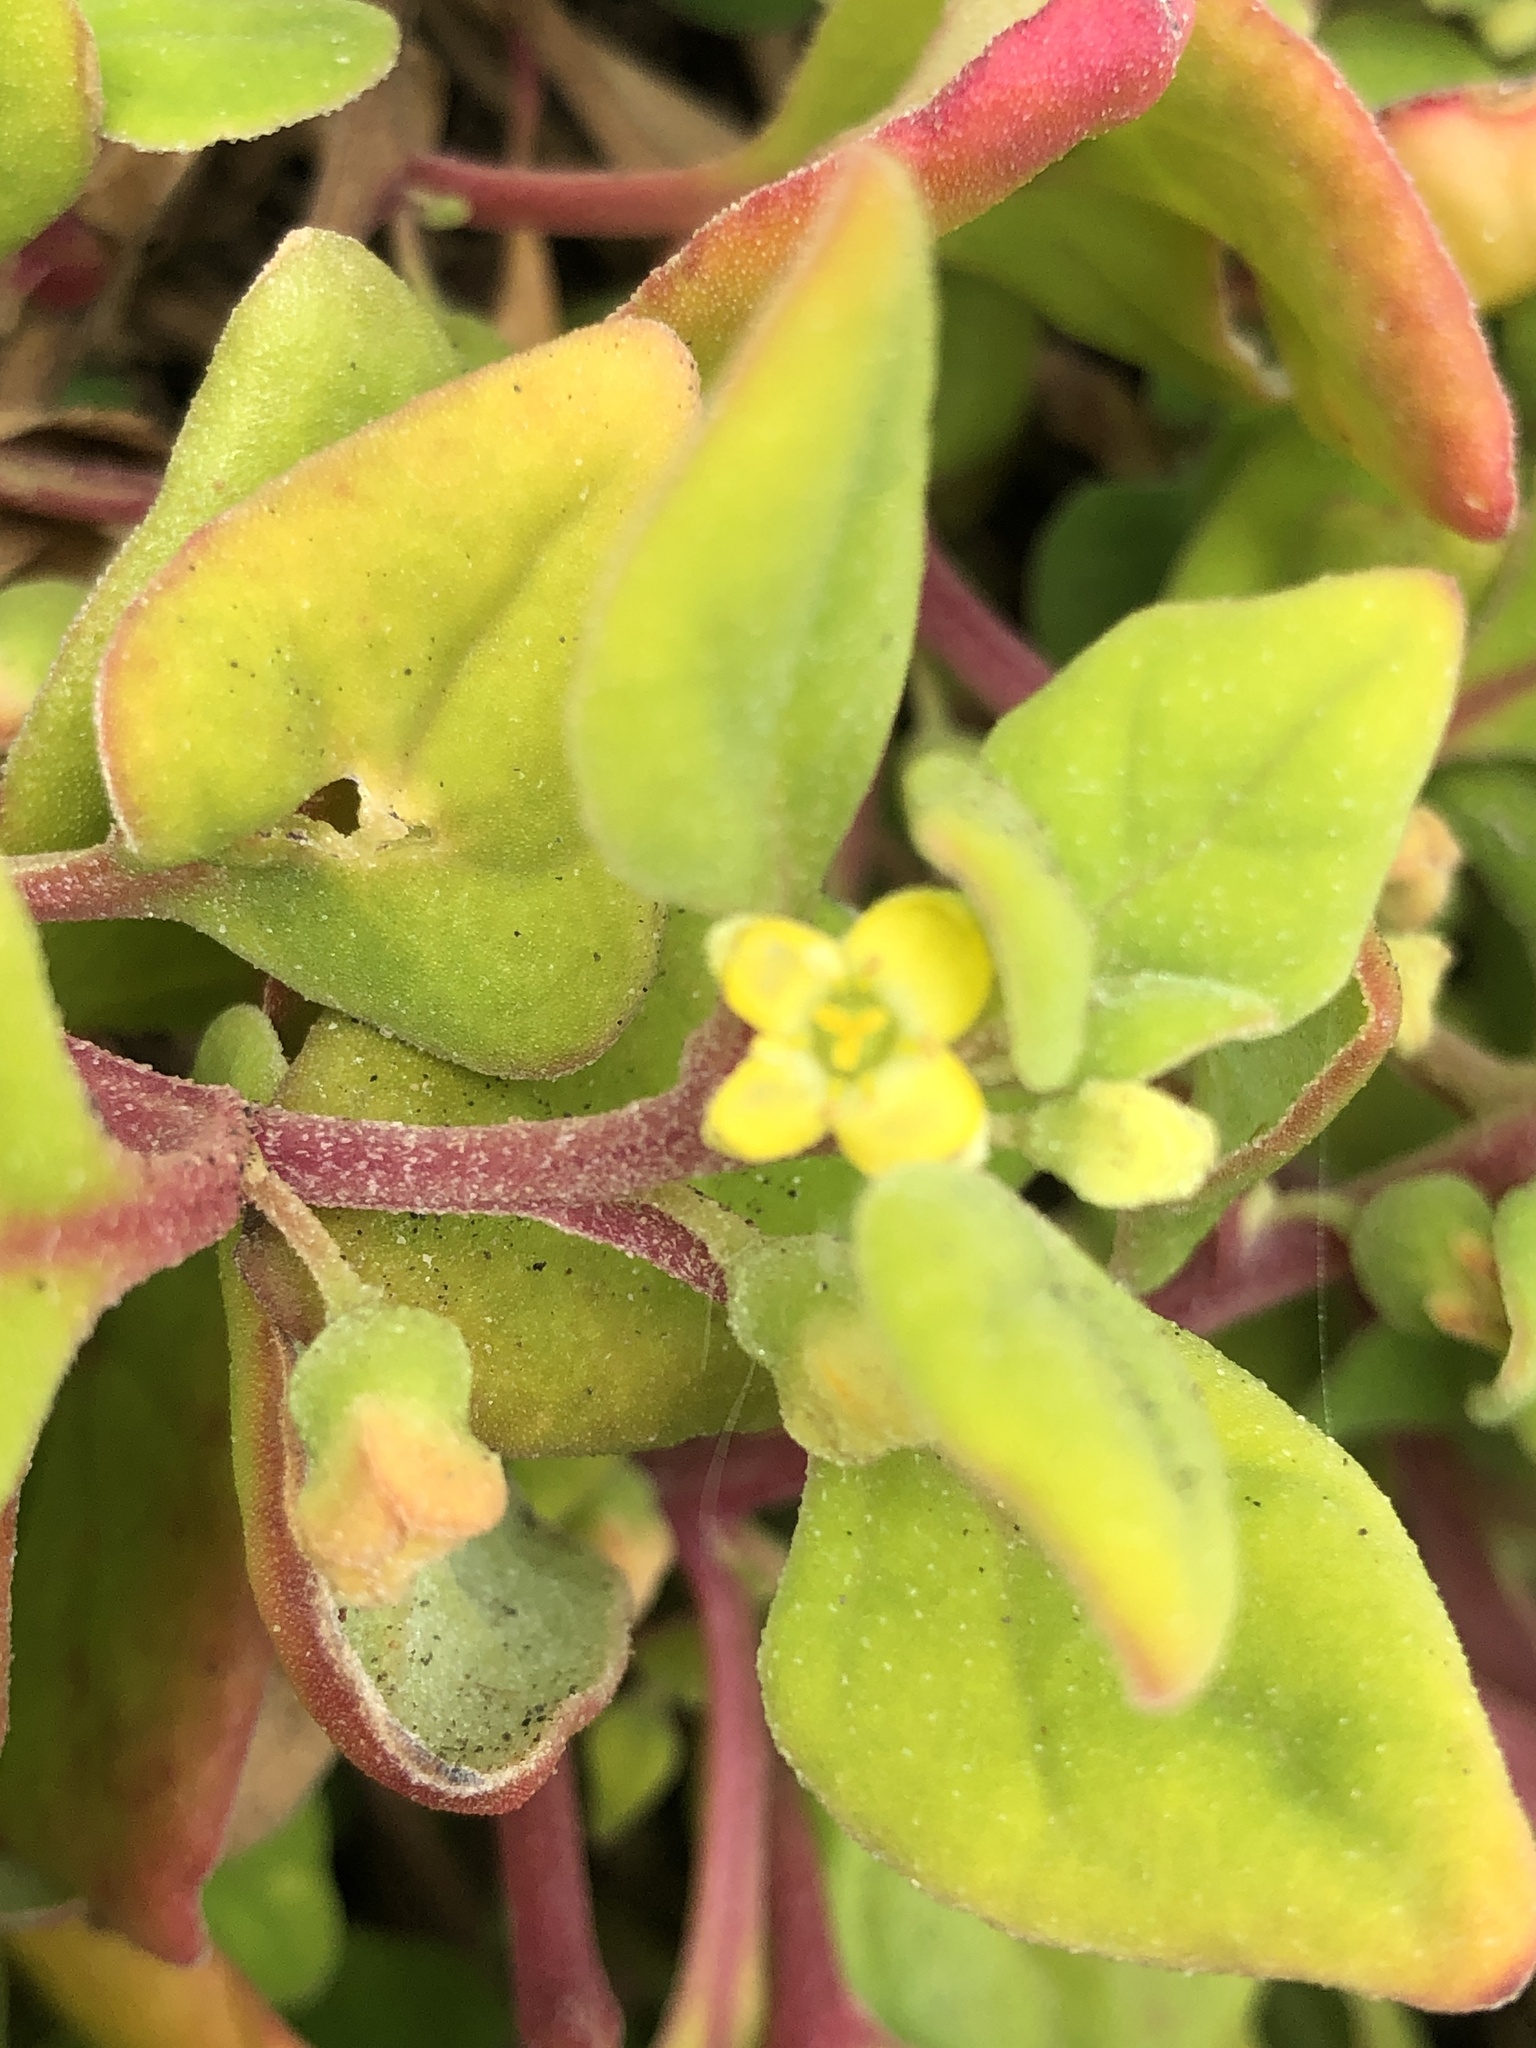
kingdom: Plantae
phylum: Tracheophyta
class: Magnoliopsida
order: Caryophyllales
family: Aizoaceae
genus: Tetragonia
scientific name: Tetragonia implexicoma
